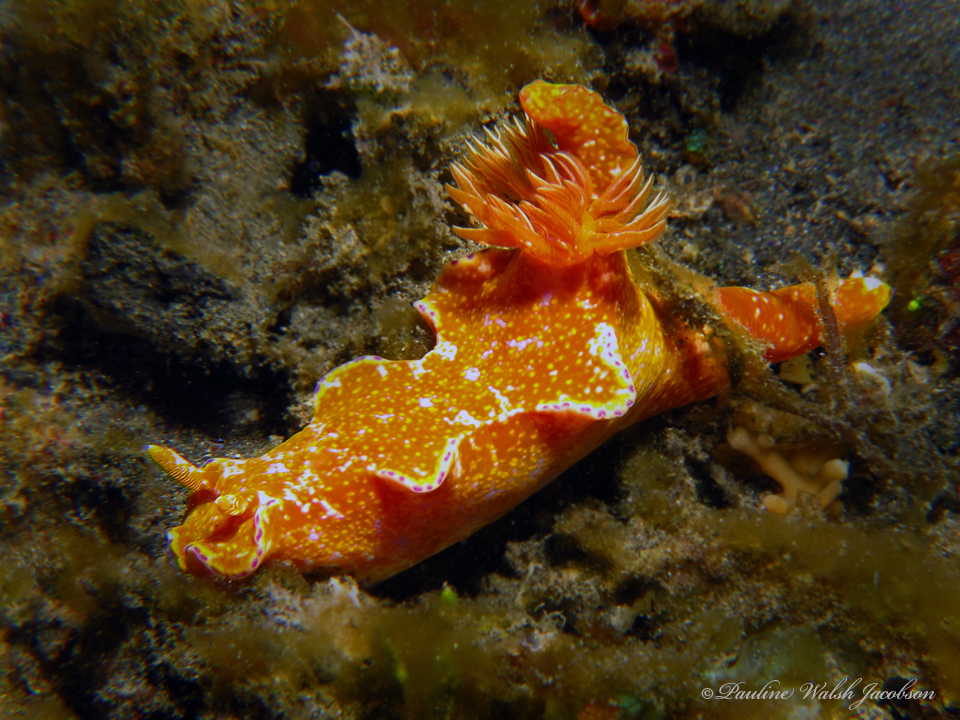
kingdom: Animalia
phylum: Mollusca
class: Gastropoda
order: Nudibranchia
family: Chromodorididae
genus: Ceratosoma
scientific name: Ceratosoma tenue
